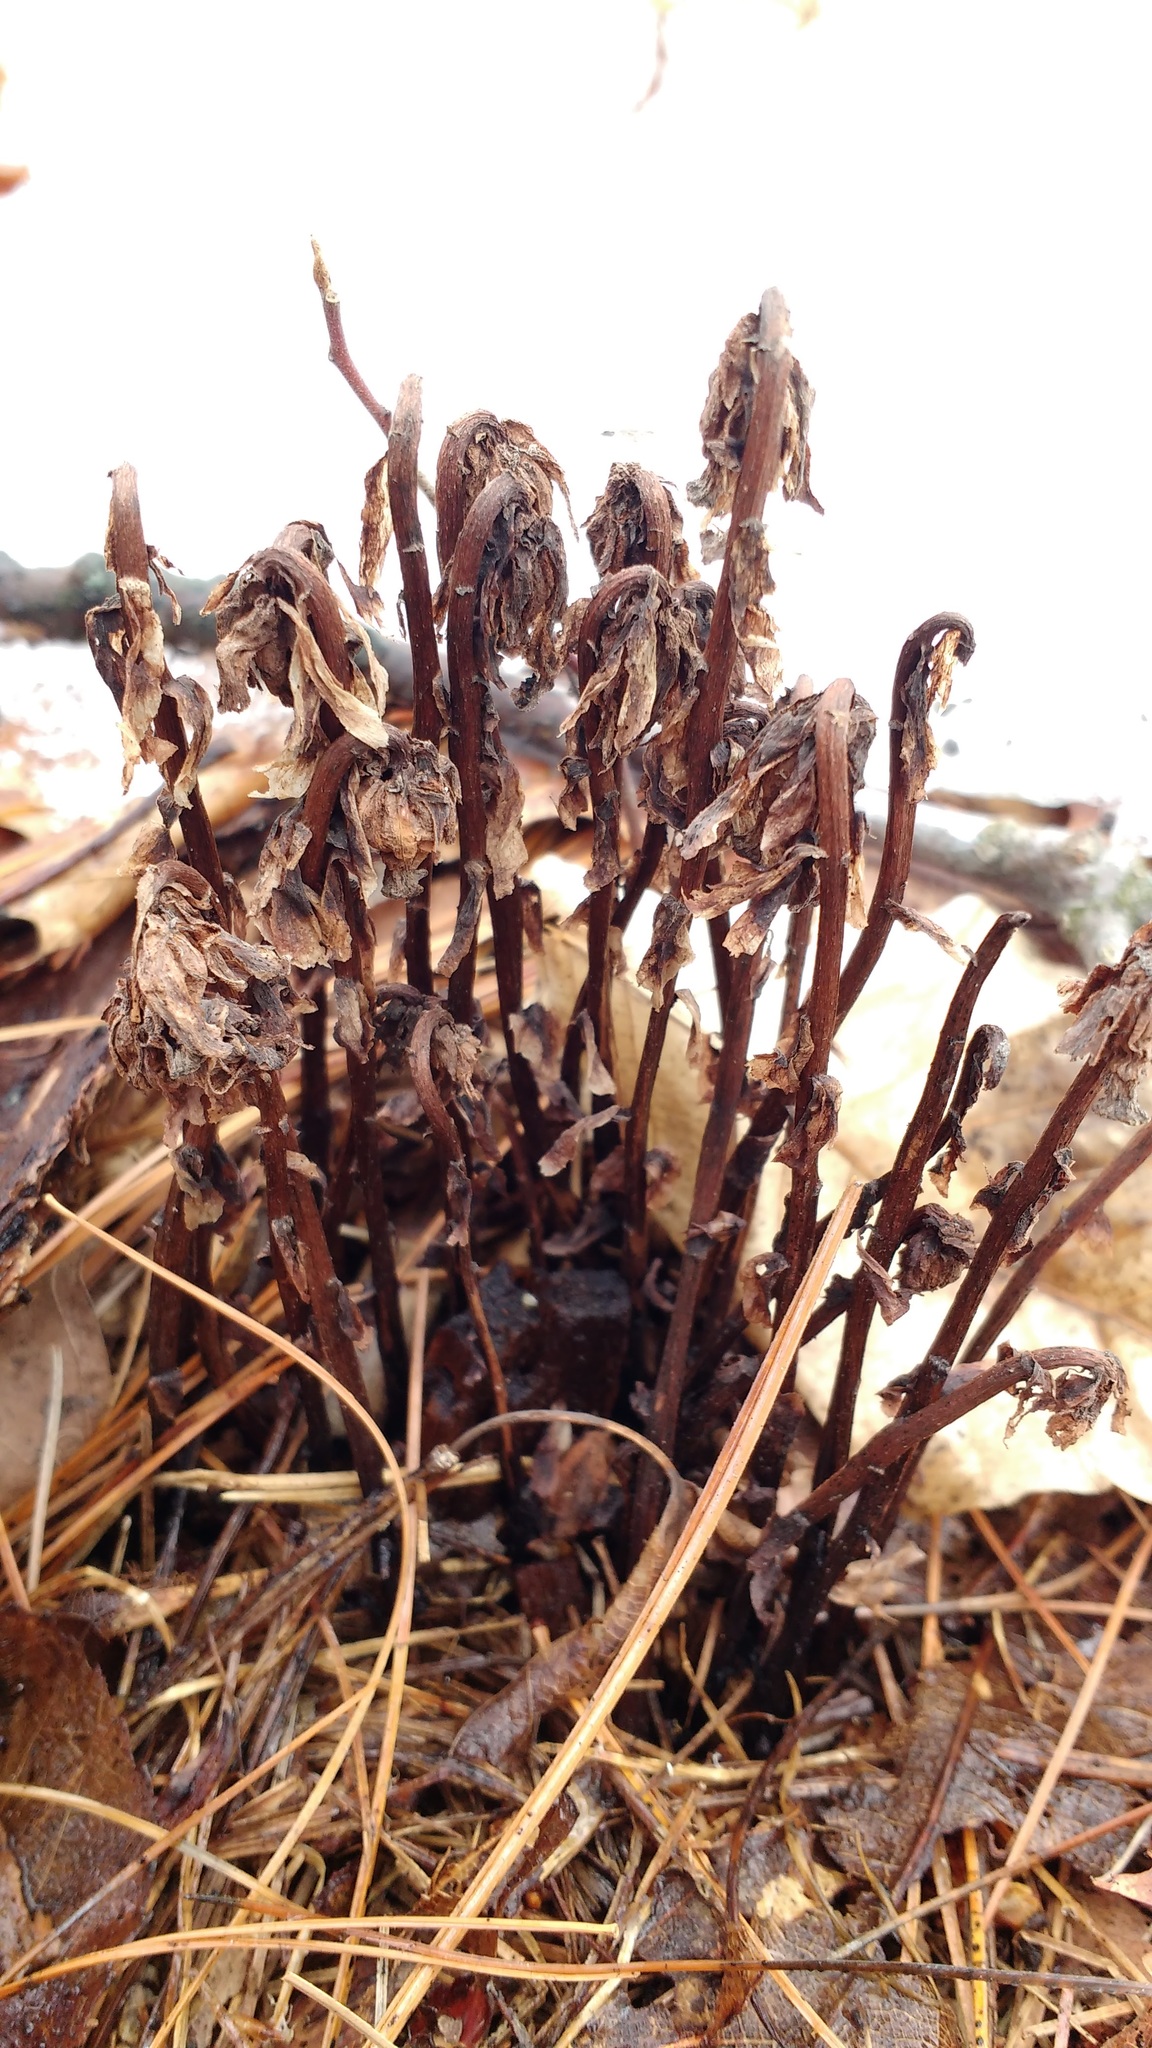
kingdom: Plantae
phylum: Tracheophyta
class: Magnoliopsida
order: Ericales
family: Ericaceae
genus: Monotropa
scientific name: Monotropa uniflora
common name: Convulsion root
